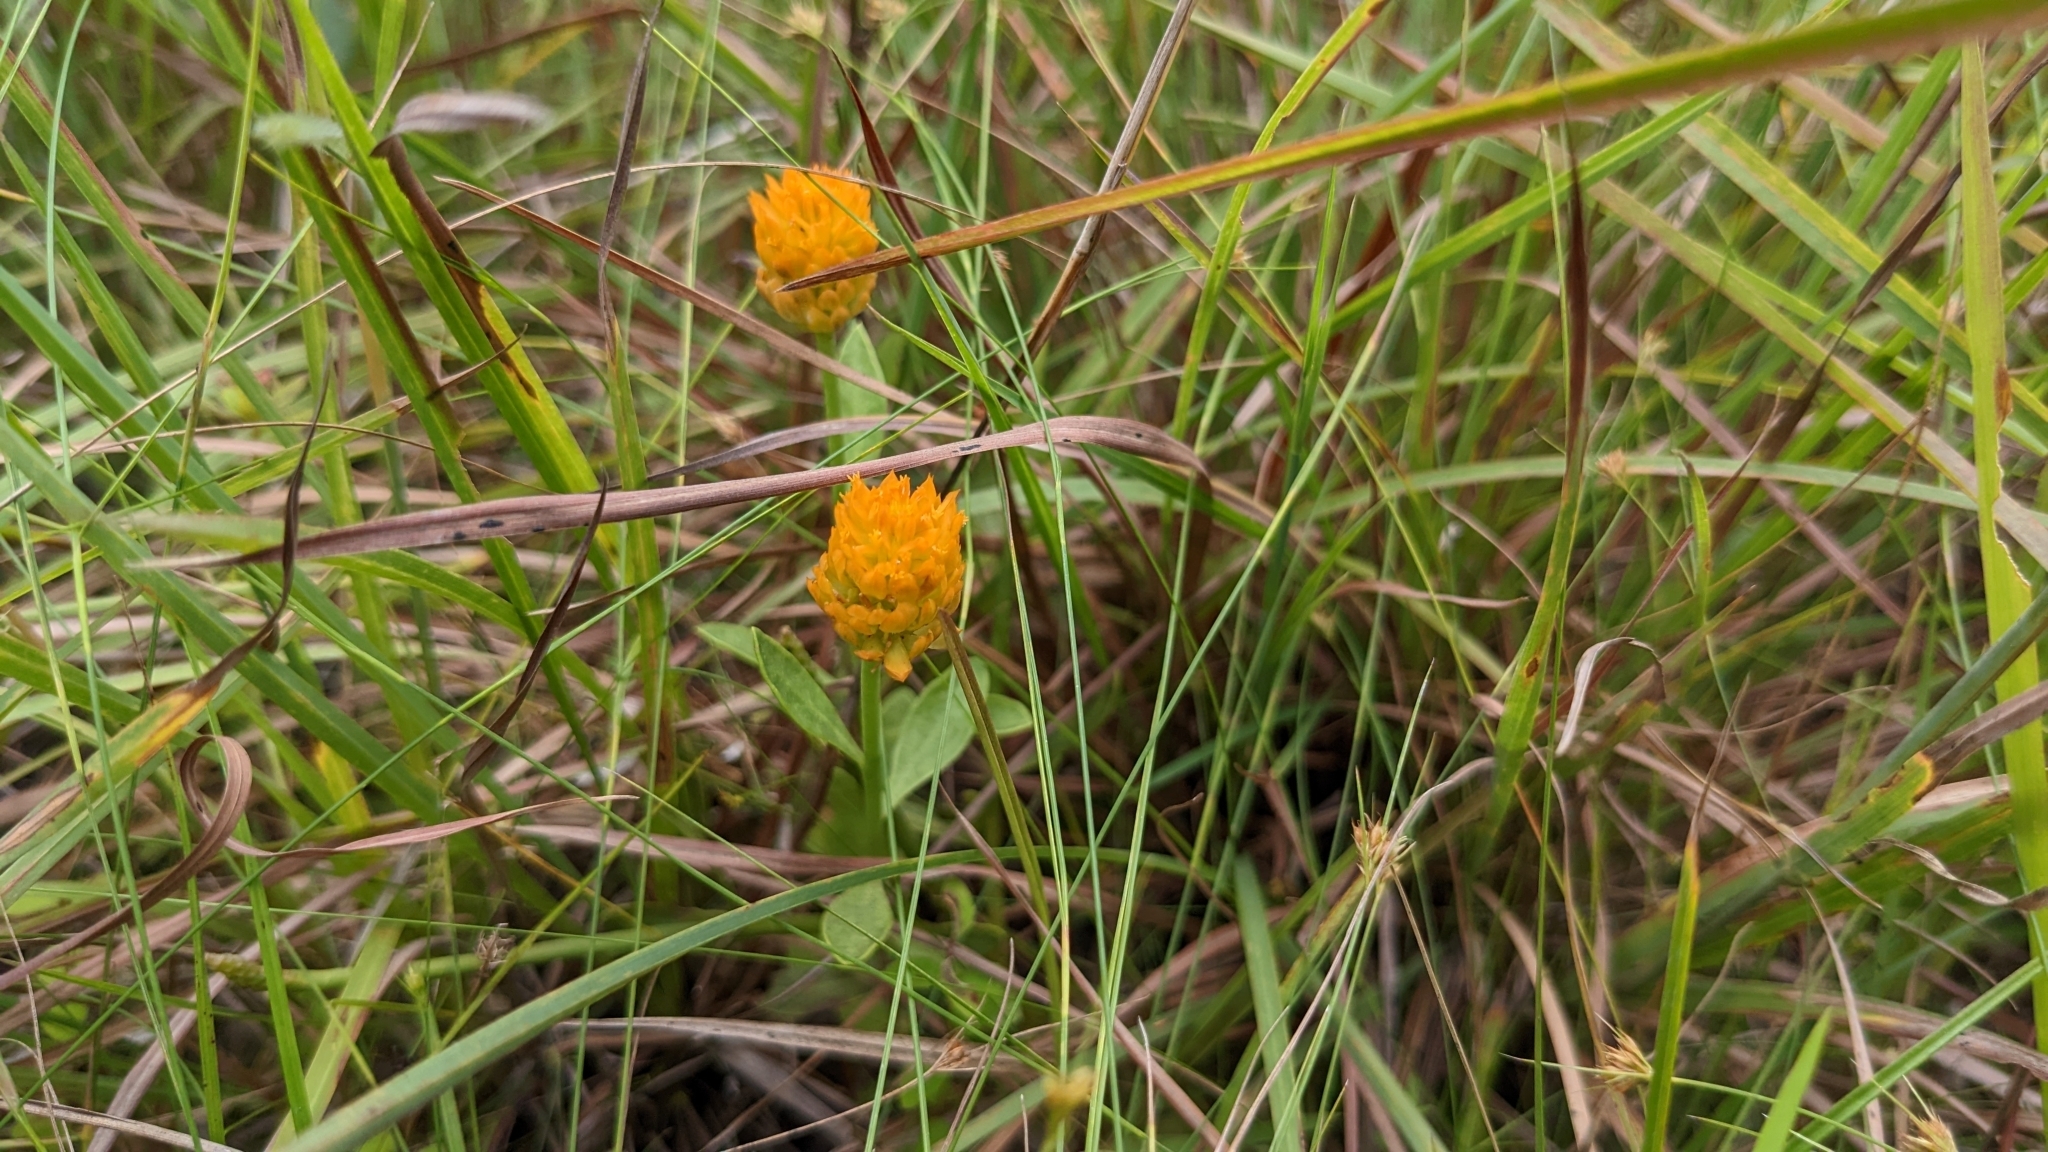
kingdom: Plantae
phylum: Tracheophyta
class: Magnoliopsida
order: Fabales
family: Polygalaceae
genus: Polygala
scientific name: Polygala lutea
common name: Orange milkwort
